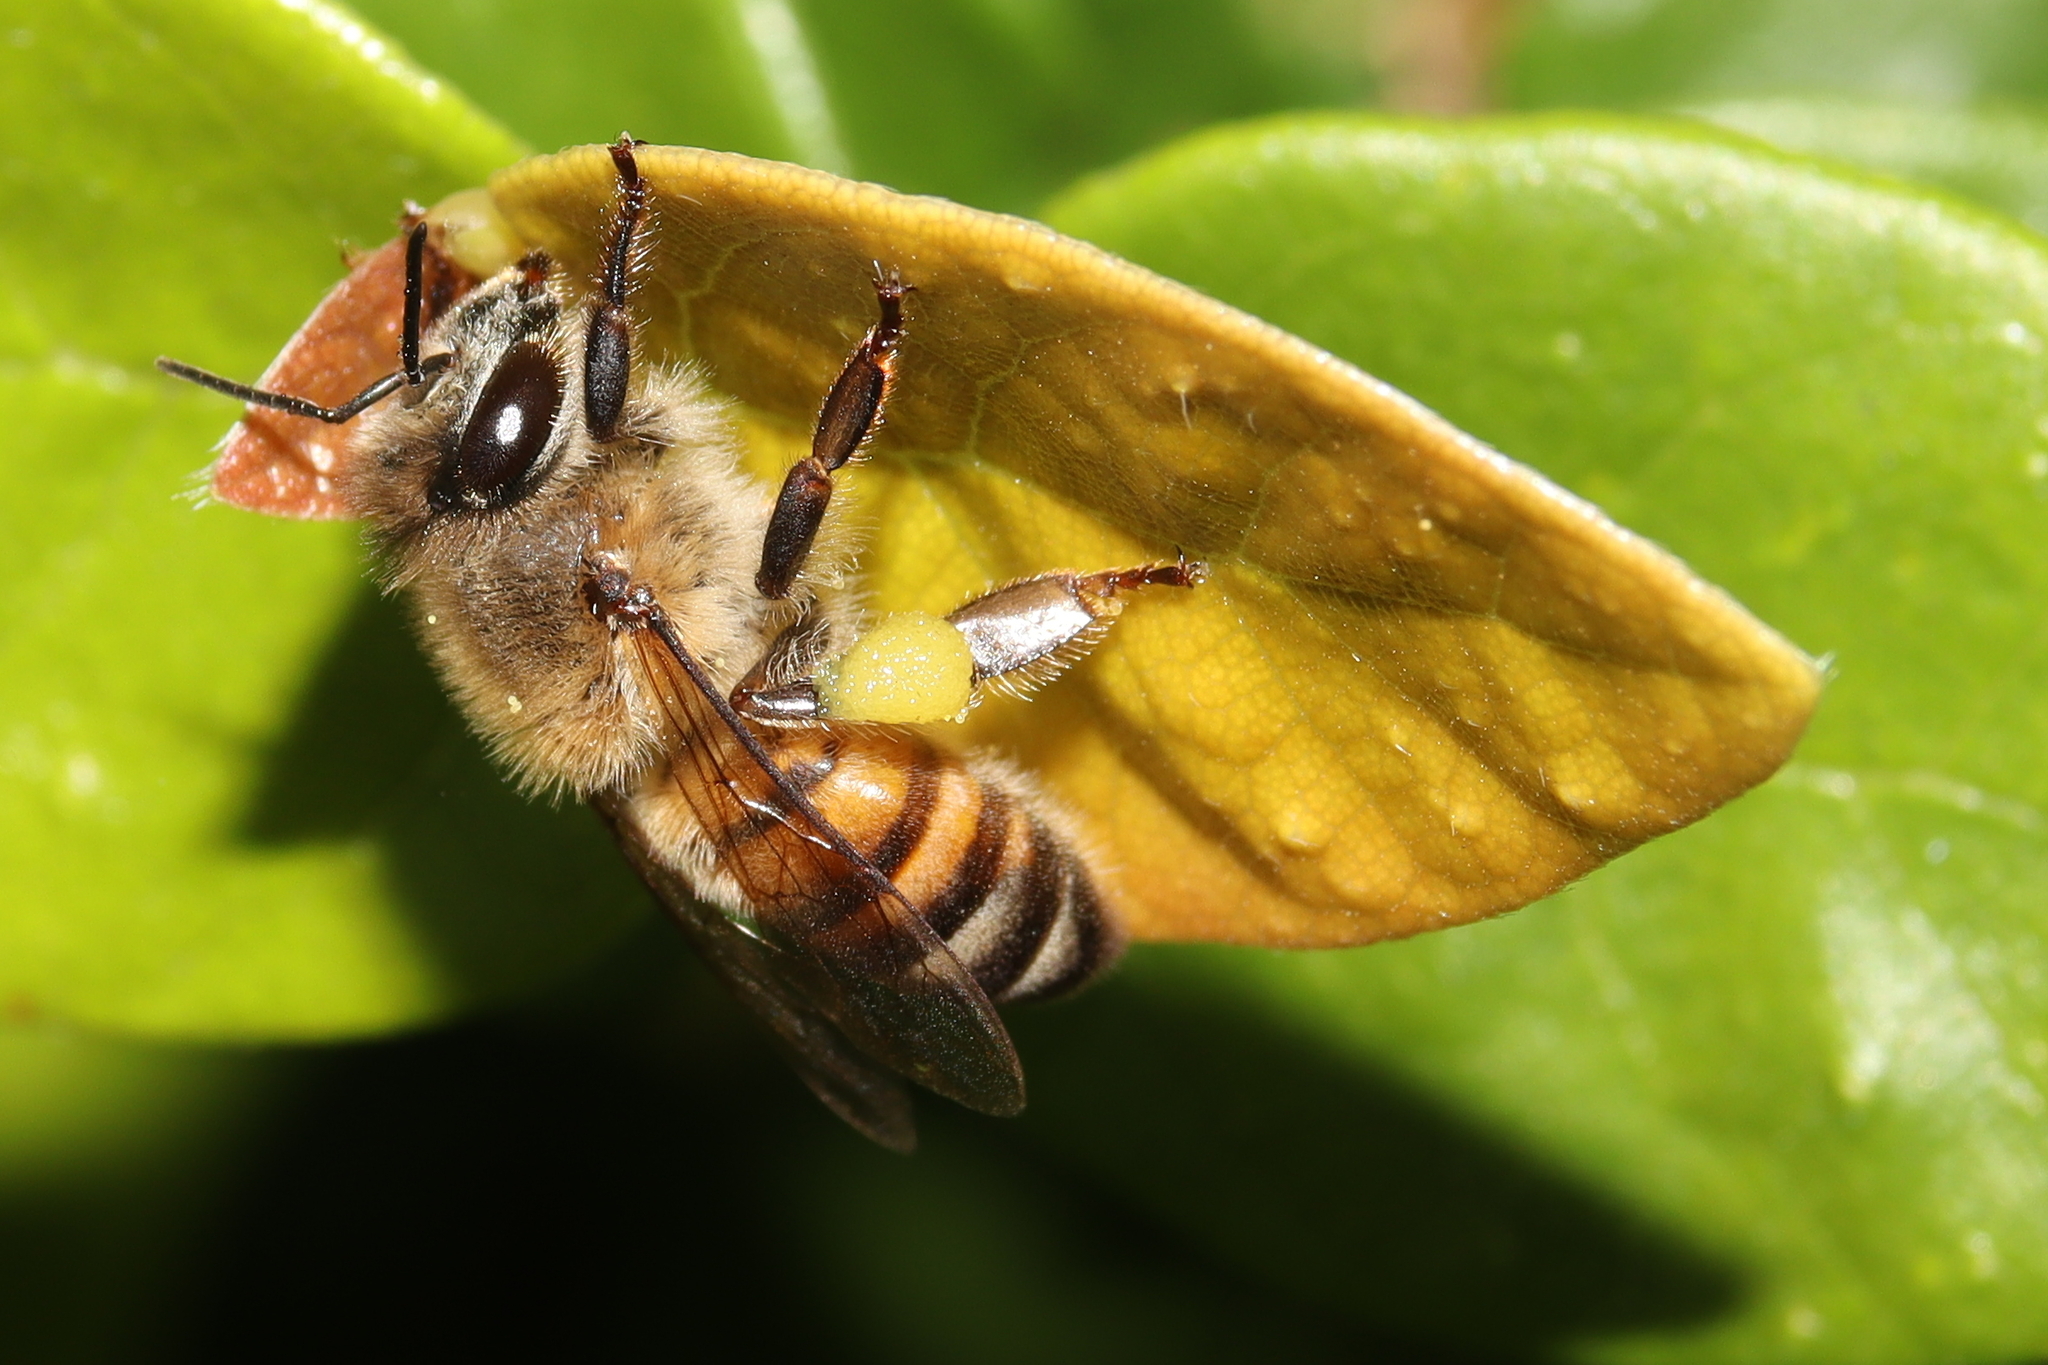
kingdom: Animalia
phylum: Arthropoda
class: Insecta
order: Hymenoptera
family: Apidae
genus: Apis
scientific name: Apis mellifera
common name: Honey bee
